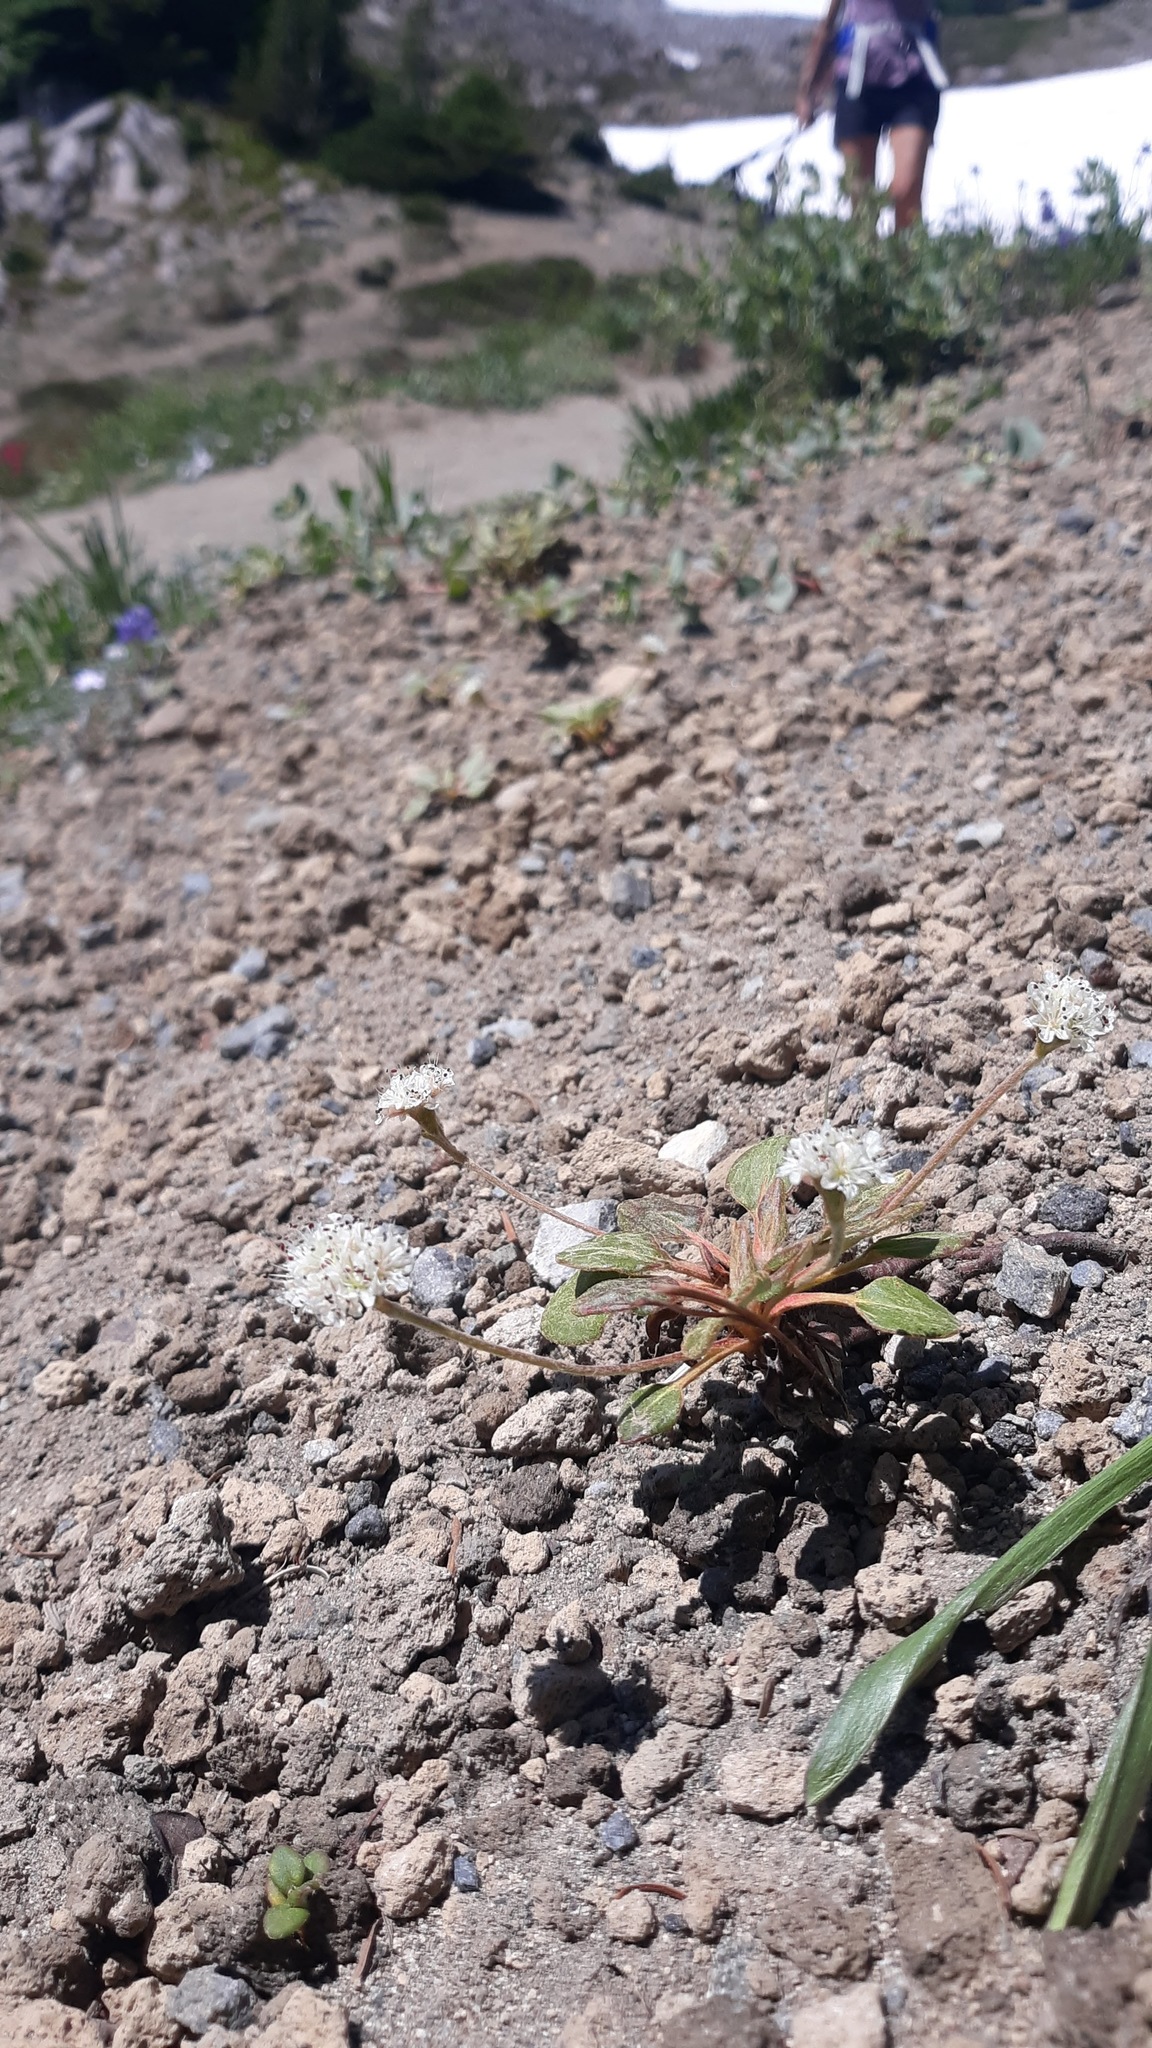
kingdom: Plantae
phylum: Tracheophyta
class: Magnoliopsida
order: Caryophyllales
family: Polygonaceae
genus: Eriogonum
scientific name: Eriogonum pyrolifolium
